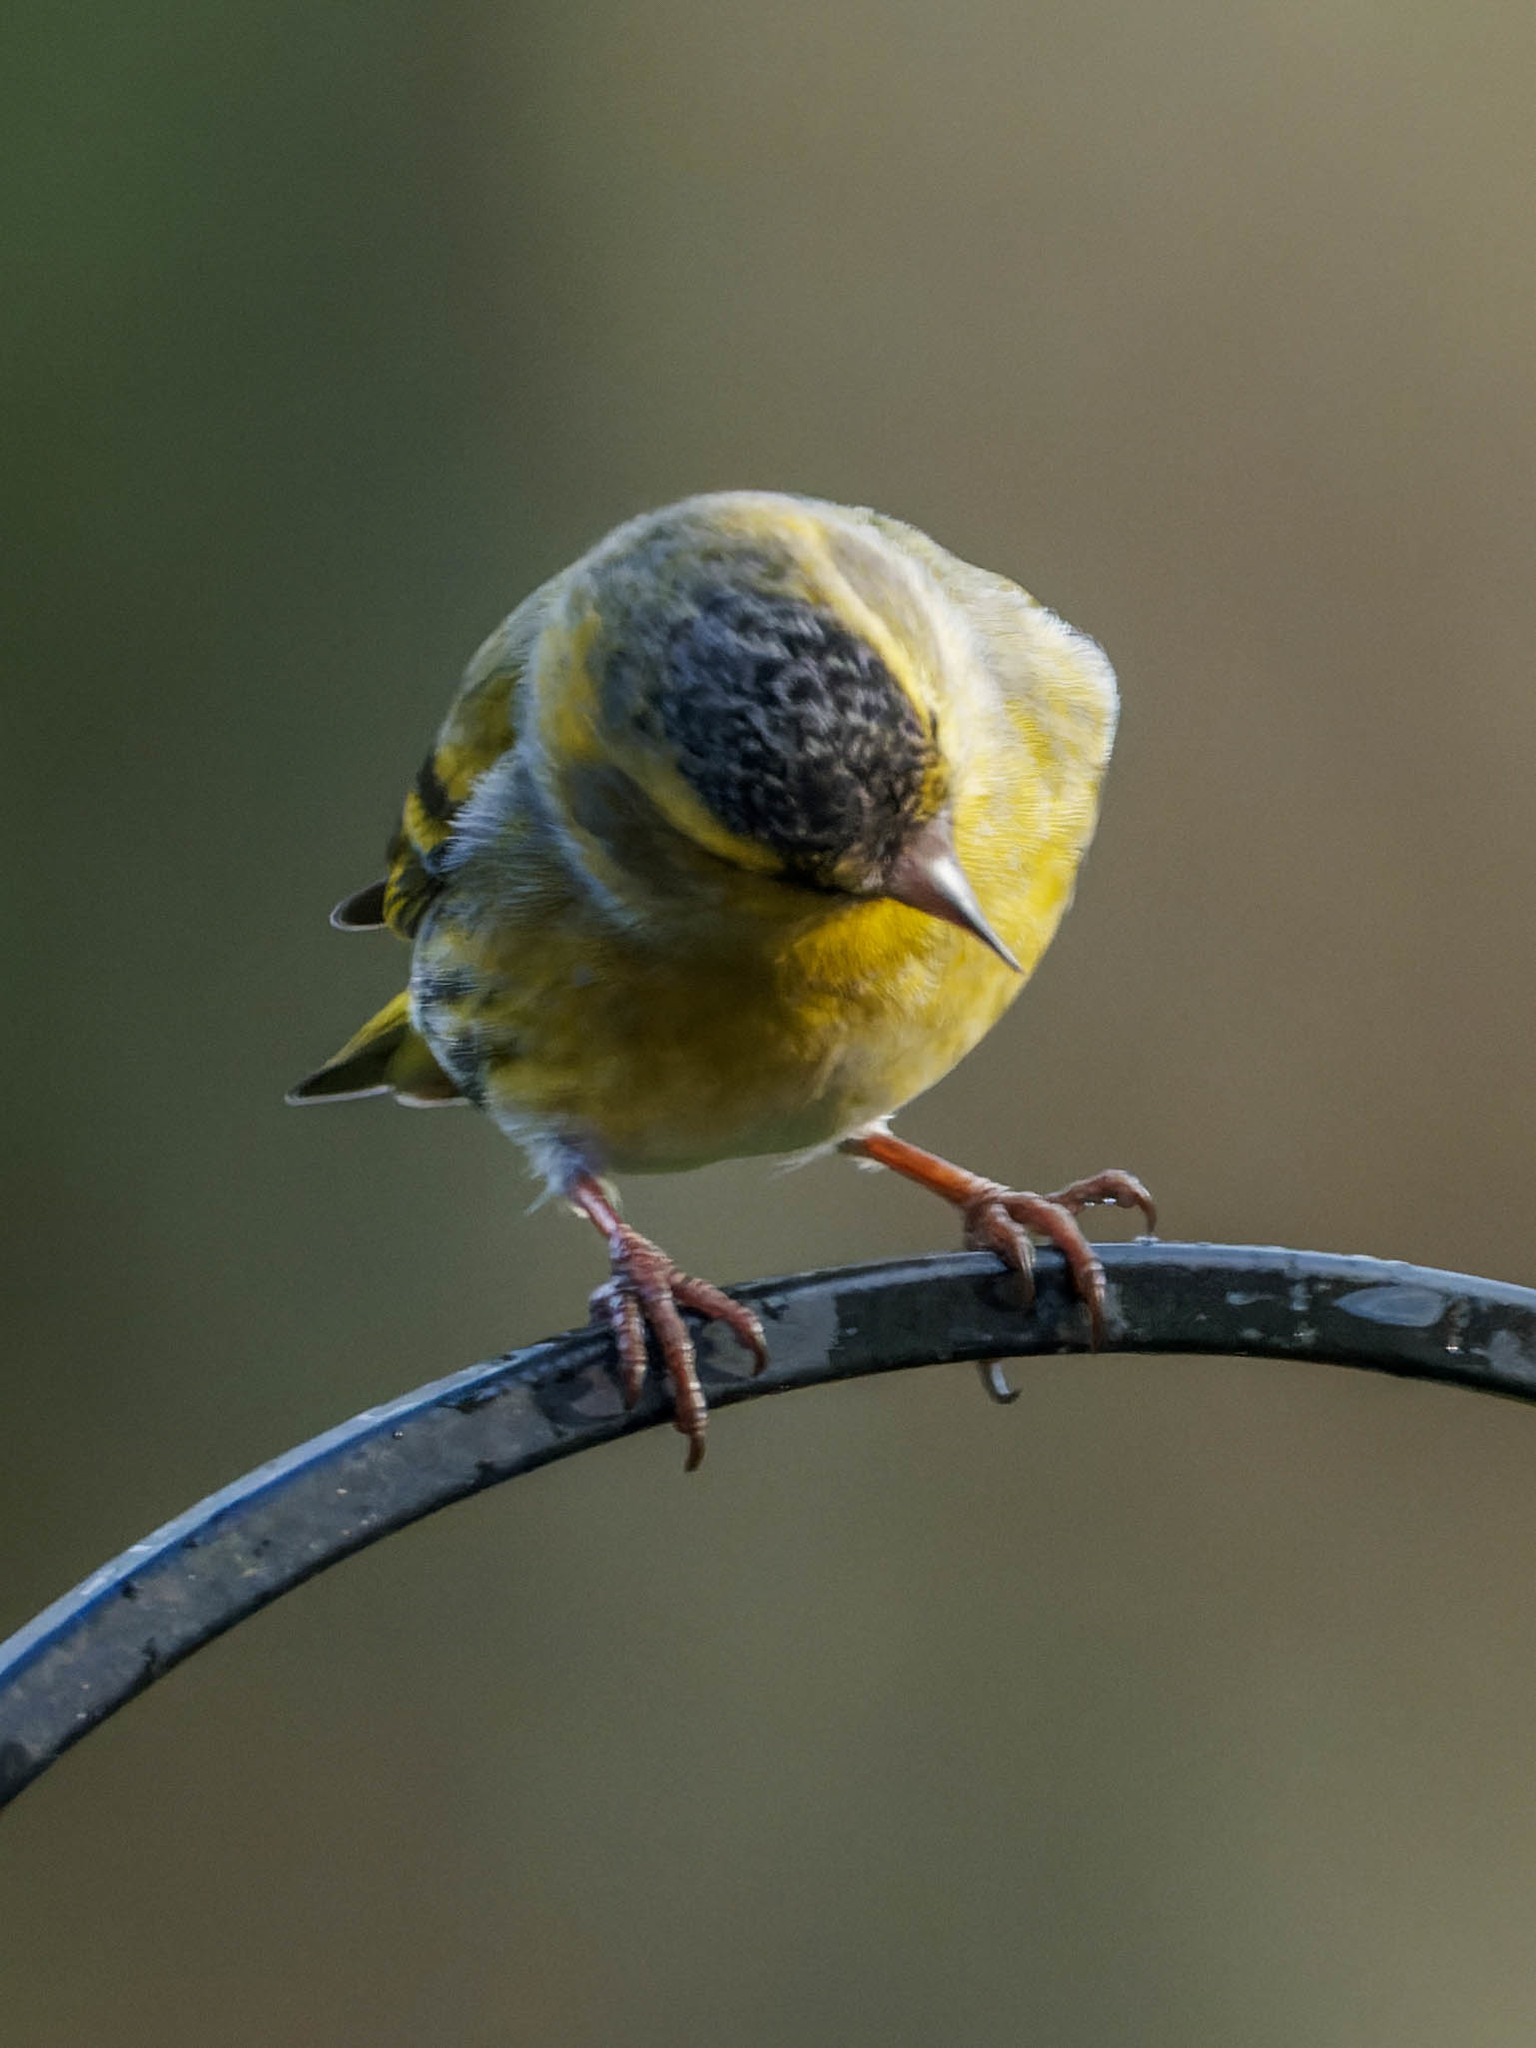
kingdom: Animalia
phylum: Chordata
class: Aves
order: Passeriformes
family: Fringillidae
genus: Spinus
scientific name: Spinus spinus
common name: Eurasian siskin
